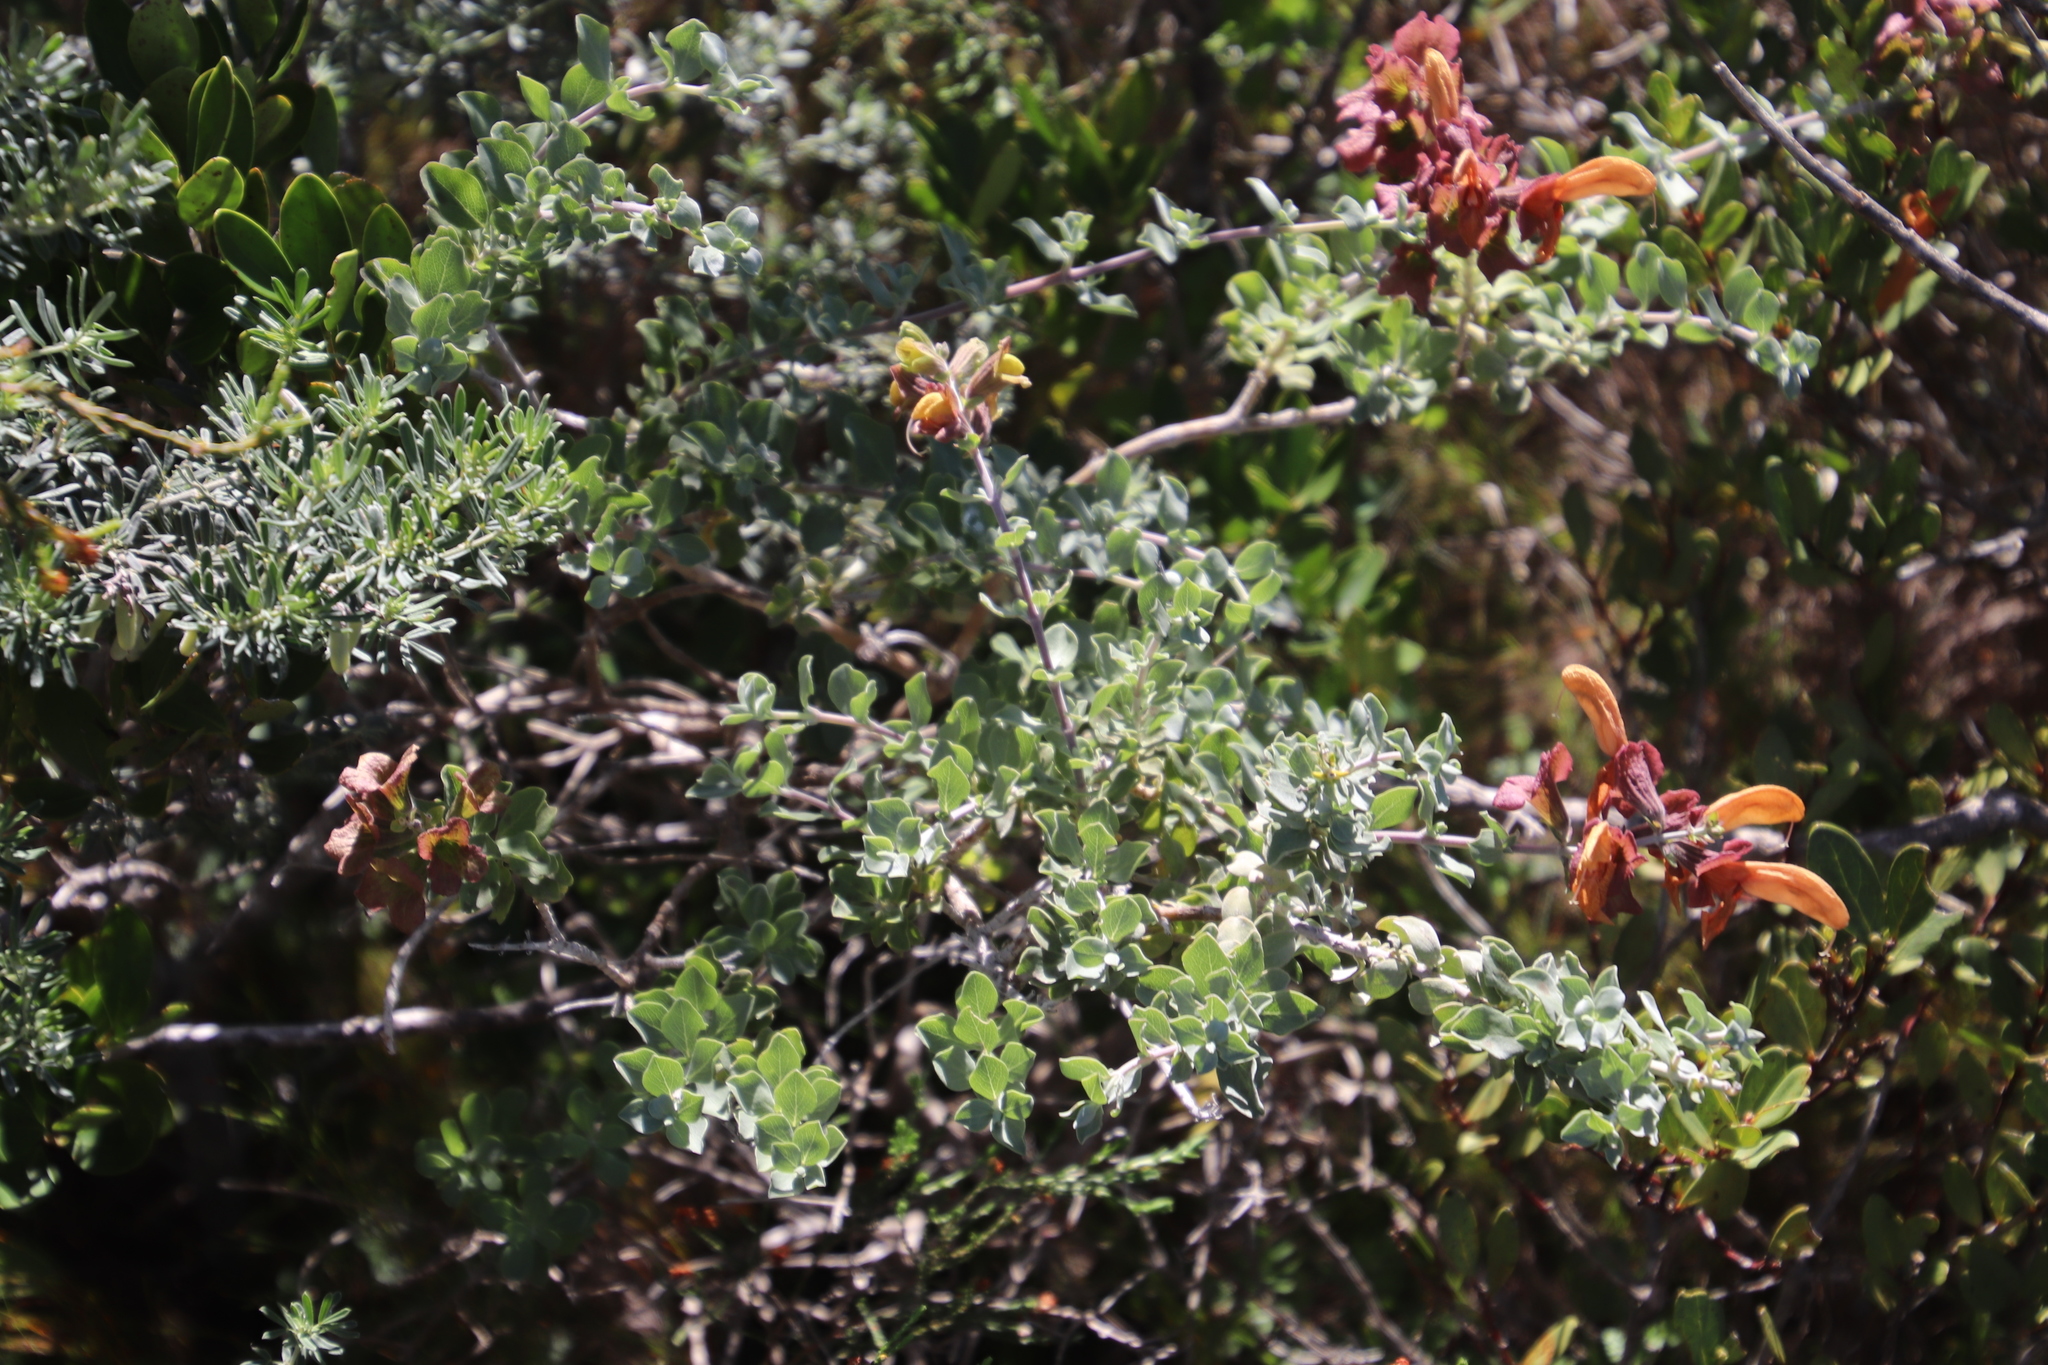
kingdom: Plantae
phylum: Tracheophyta
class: Magnoliopsida
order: Lamiales
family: Lamiaceae
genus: Salvia
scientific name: Salvia aurea
